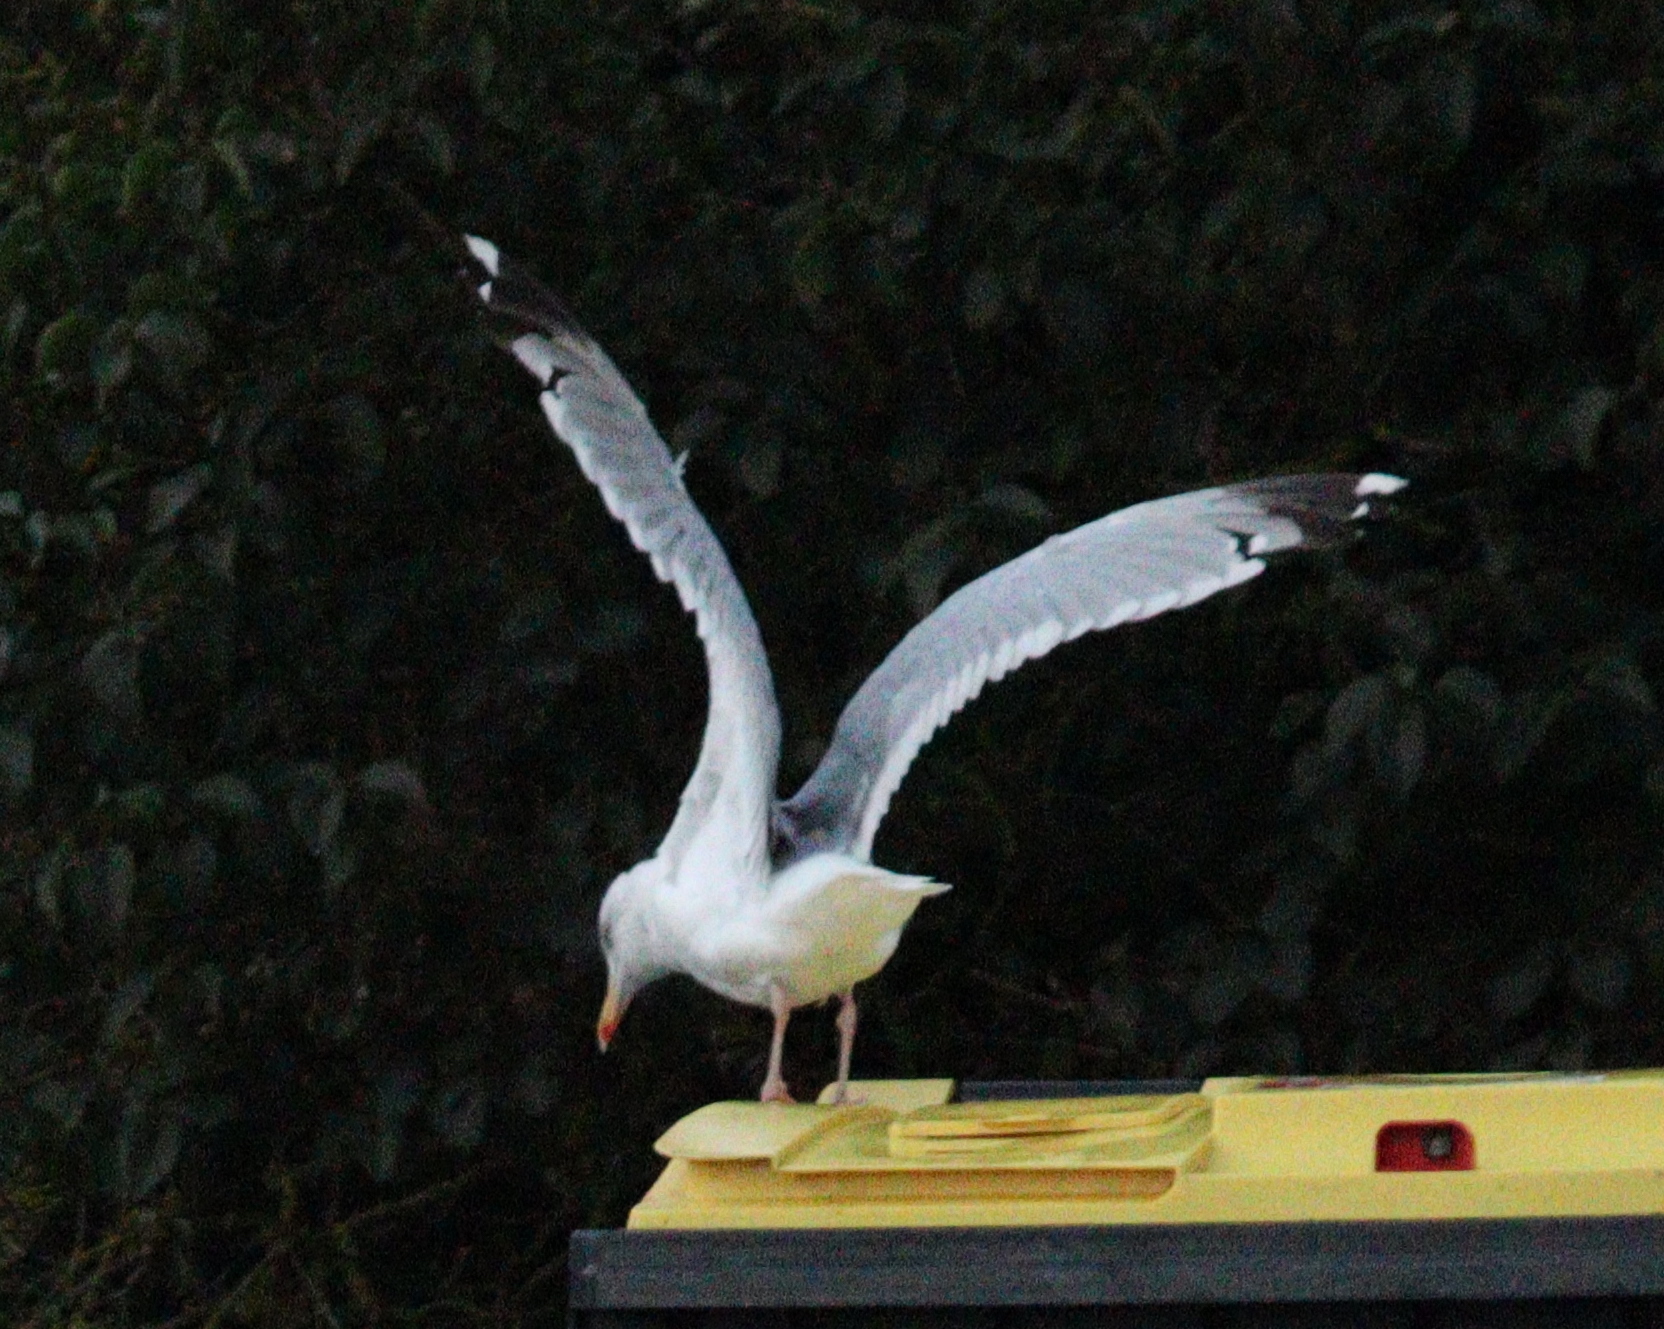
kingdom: Animalia
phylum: Chordata
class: Aves
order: Charadriiformes
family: Laridae
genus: Larus
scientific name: Larus argentatus
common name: Herring gull
